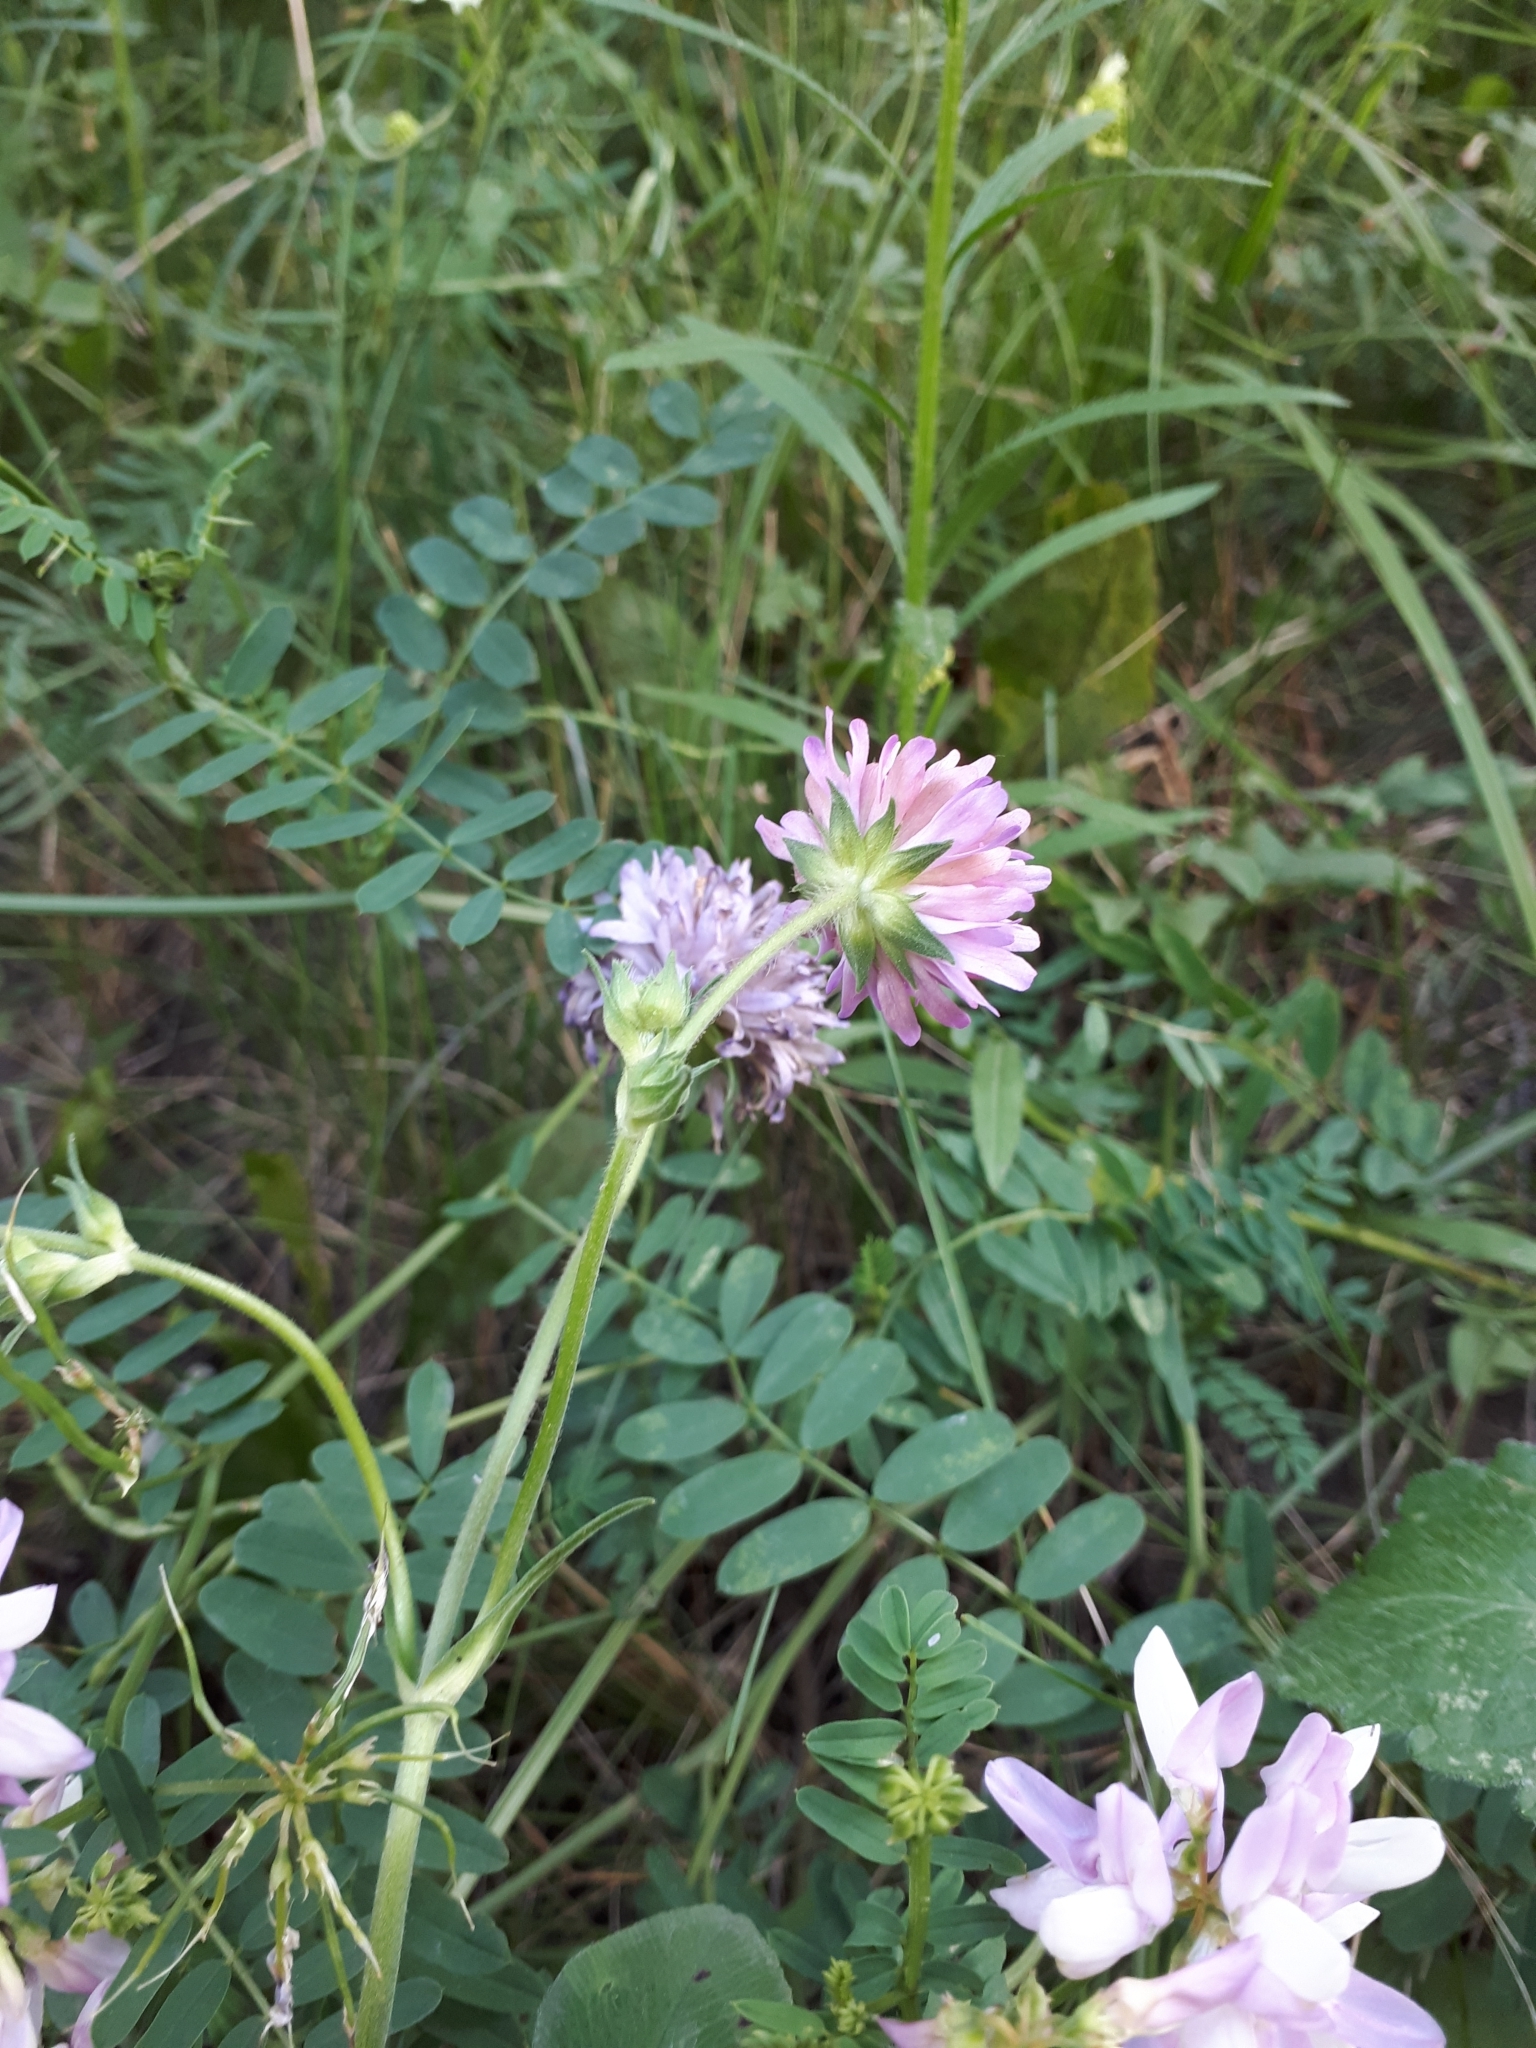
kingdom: Plantae
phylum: Tracheophyta
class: Magnoliopsida
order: Fabales
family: Fabaceae
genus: Coronilla
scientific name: Coronilla varia
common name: Crownvetch
